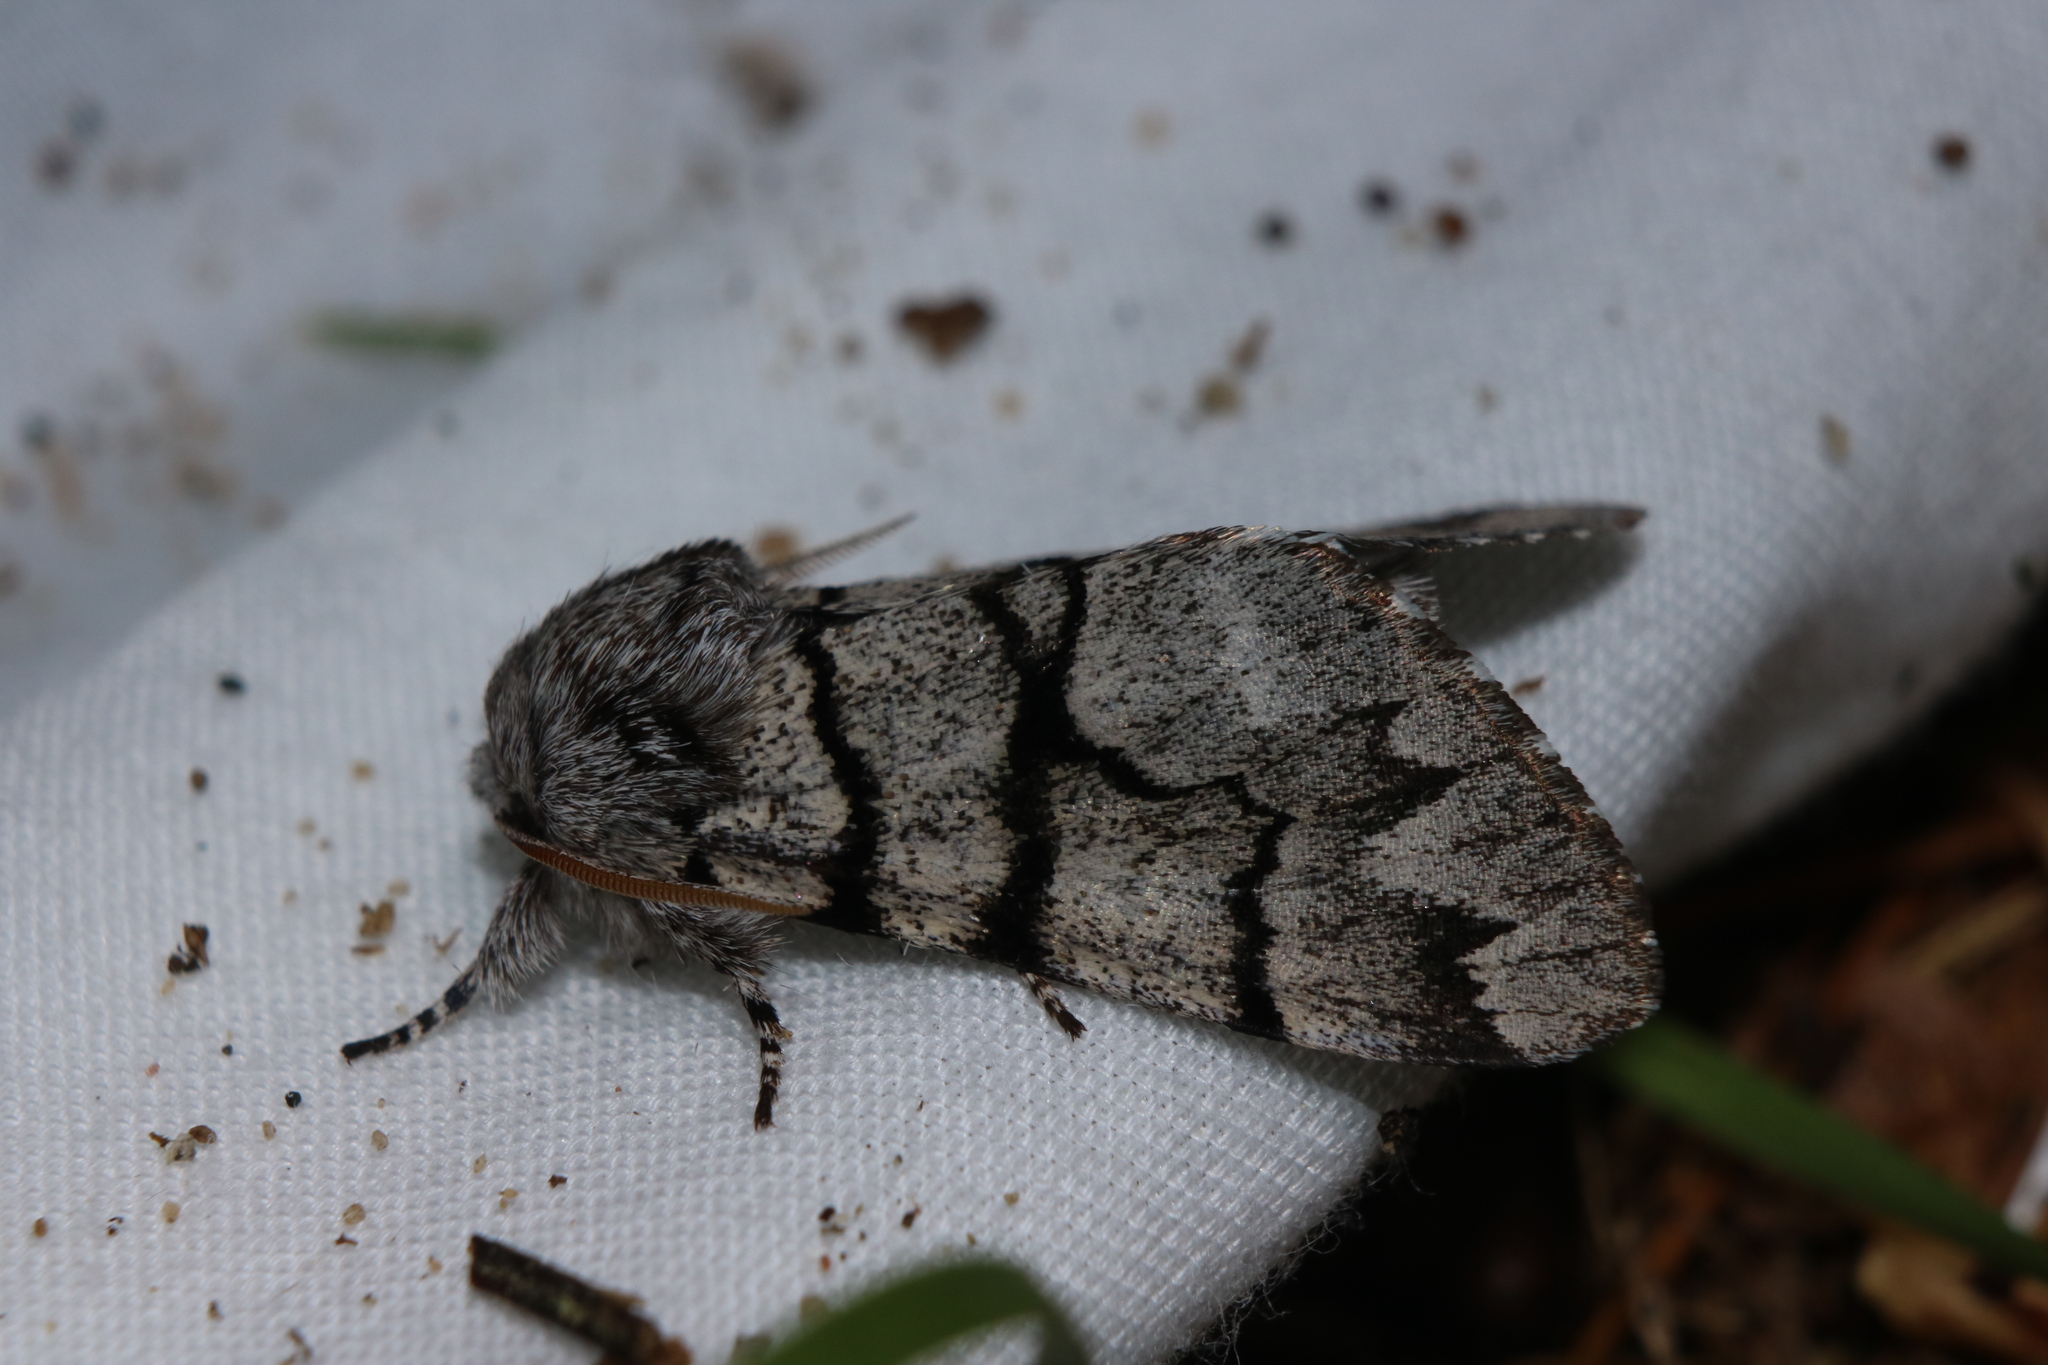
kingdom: Animalia
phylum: Arthropoda
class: Insecta
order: Lepidoptera
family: Noctuidae
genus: Panthea
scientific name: Panthea furcilla
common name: Eastern panthea moth
